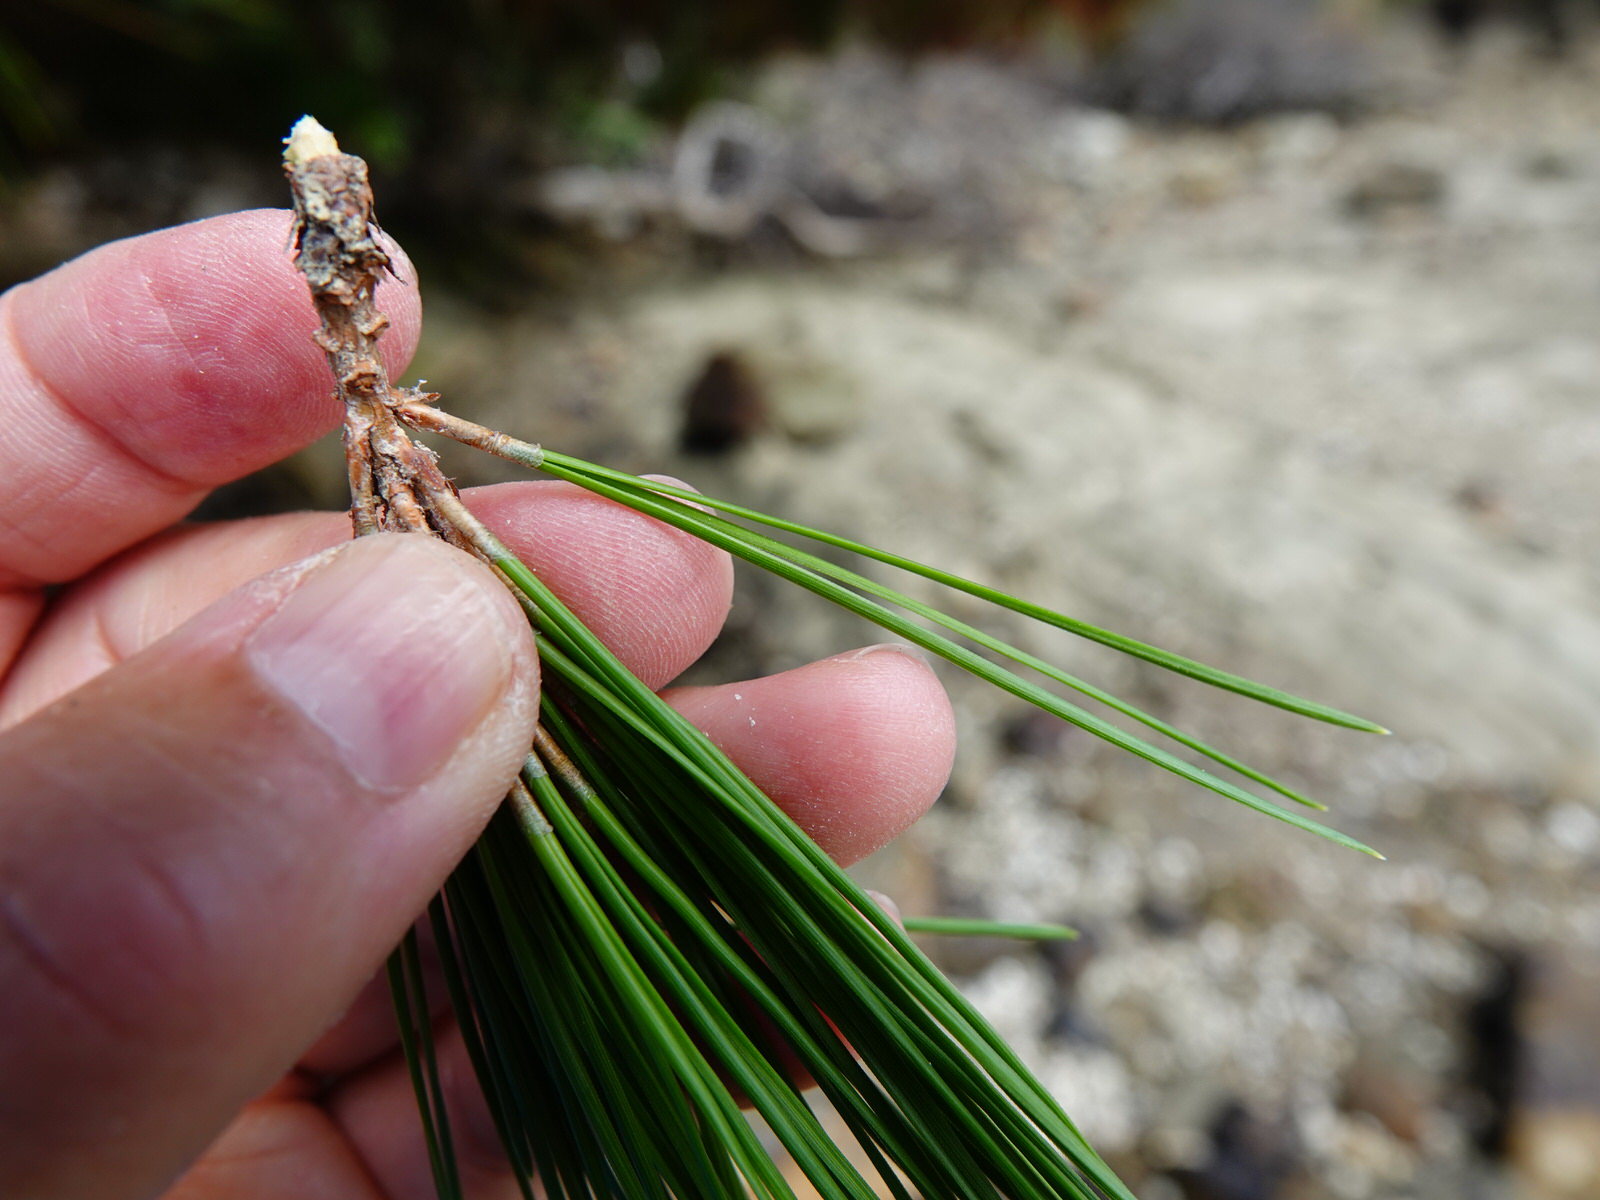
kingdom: Plantae
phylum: Tracheophyta
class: Pinopsida
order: Pinales
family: Pinaceae
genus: Pinus
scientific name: Pinus radiata
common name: Monterey pine
